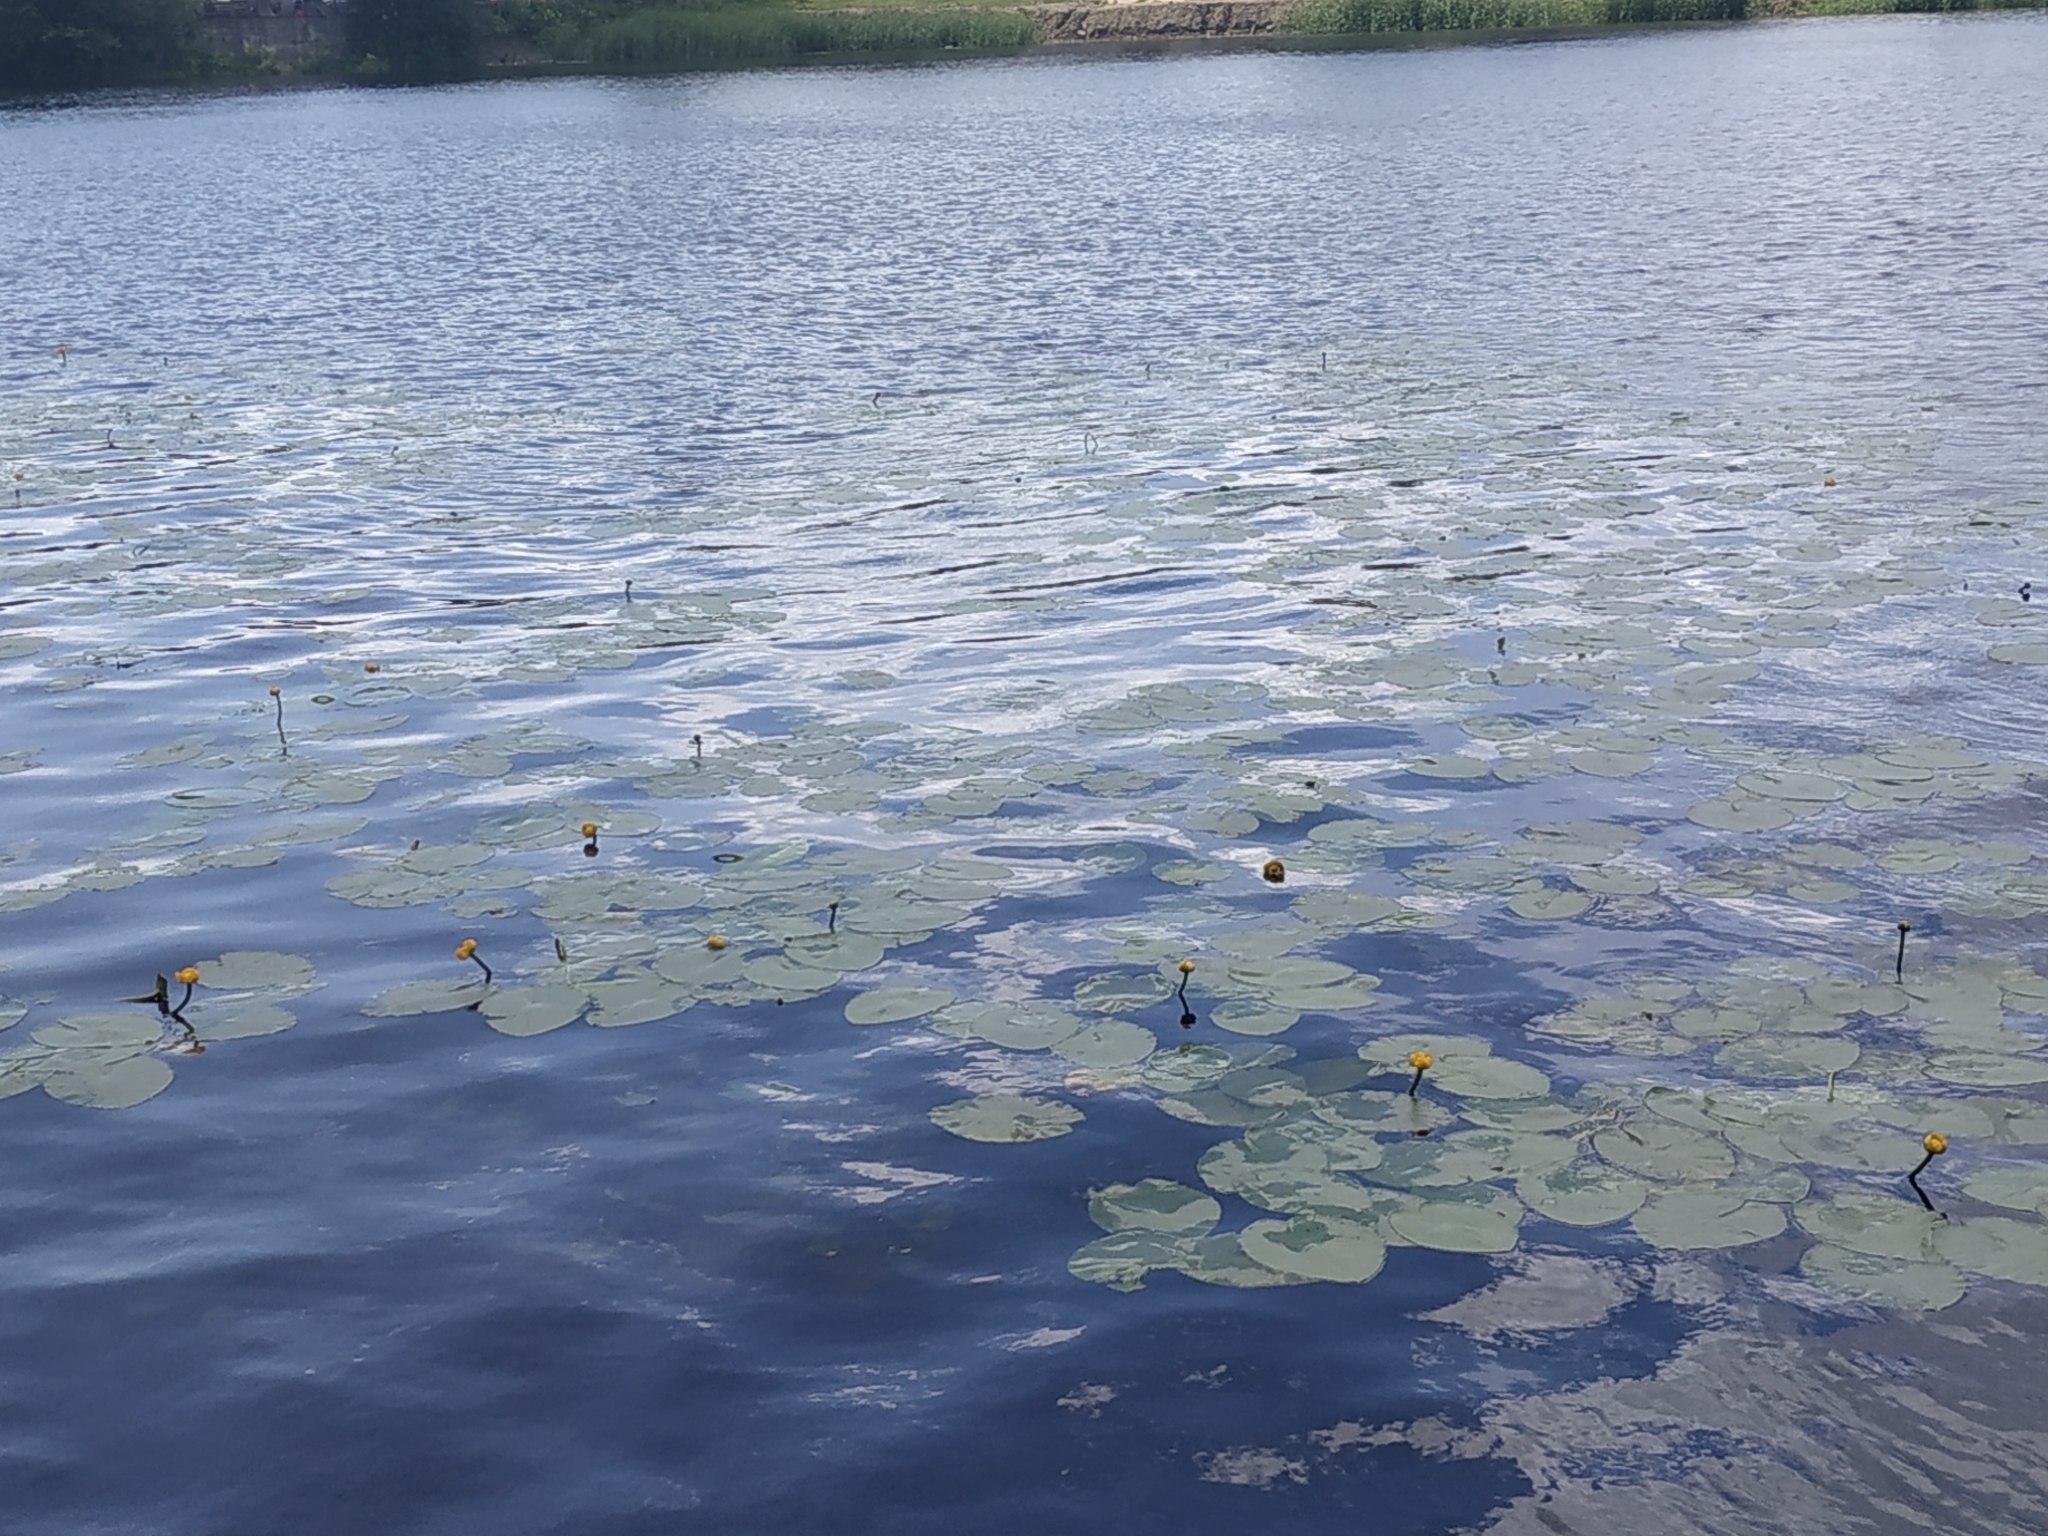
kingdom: Plantae
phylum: Tracheophyta
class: Magnoliopsida
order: Nymphaeales
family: Nymphaeaceae
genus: Nuphar
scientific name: Nuphar lutea
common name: Yellow water-lily
